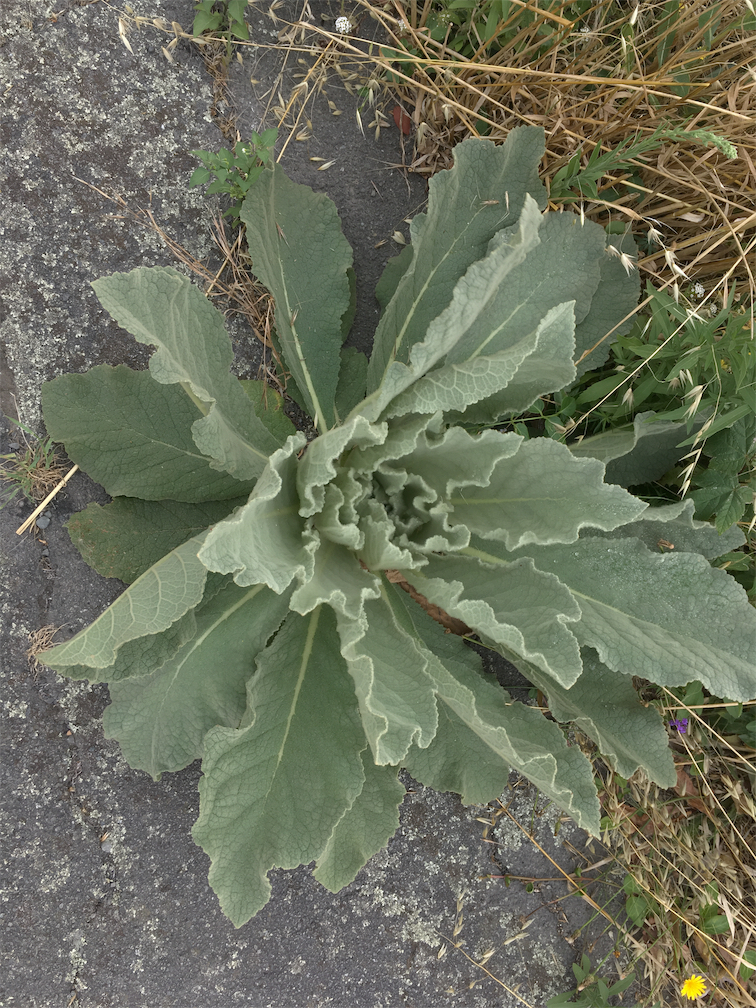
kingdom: Plantae
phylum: Tracheophyta
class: Magnoliopsida
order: Lamiales
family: Scrophulariaceae
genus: Verbascum
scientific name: Verbascum thapsus
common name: Common mullein
